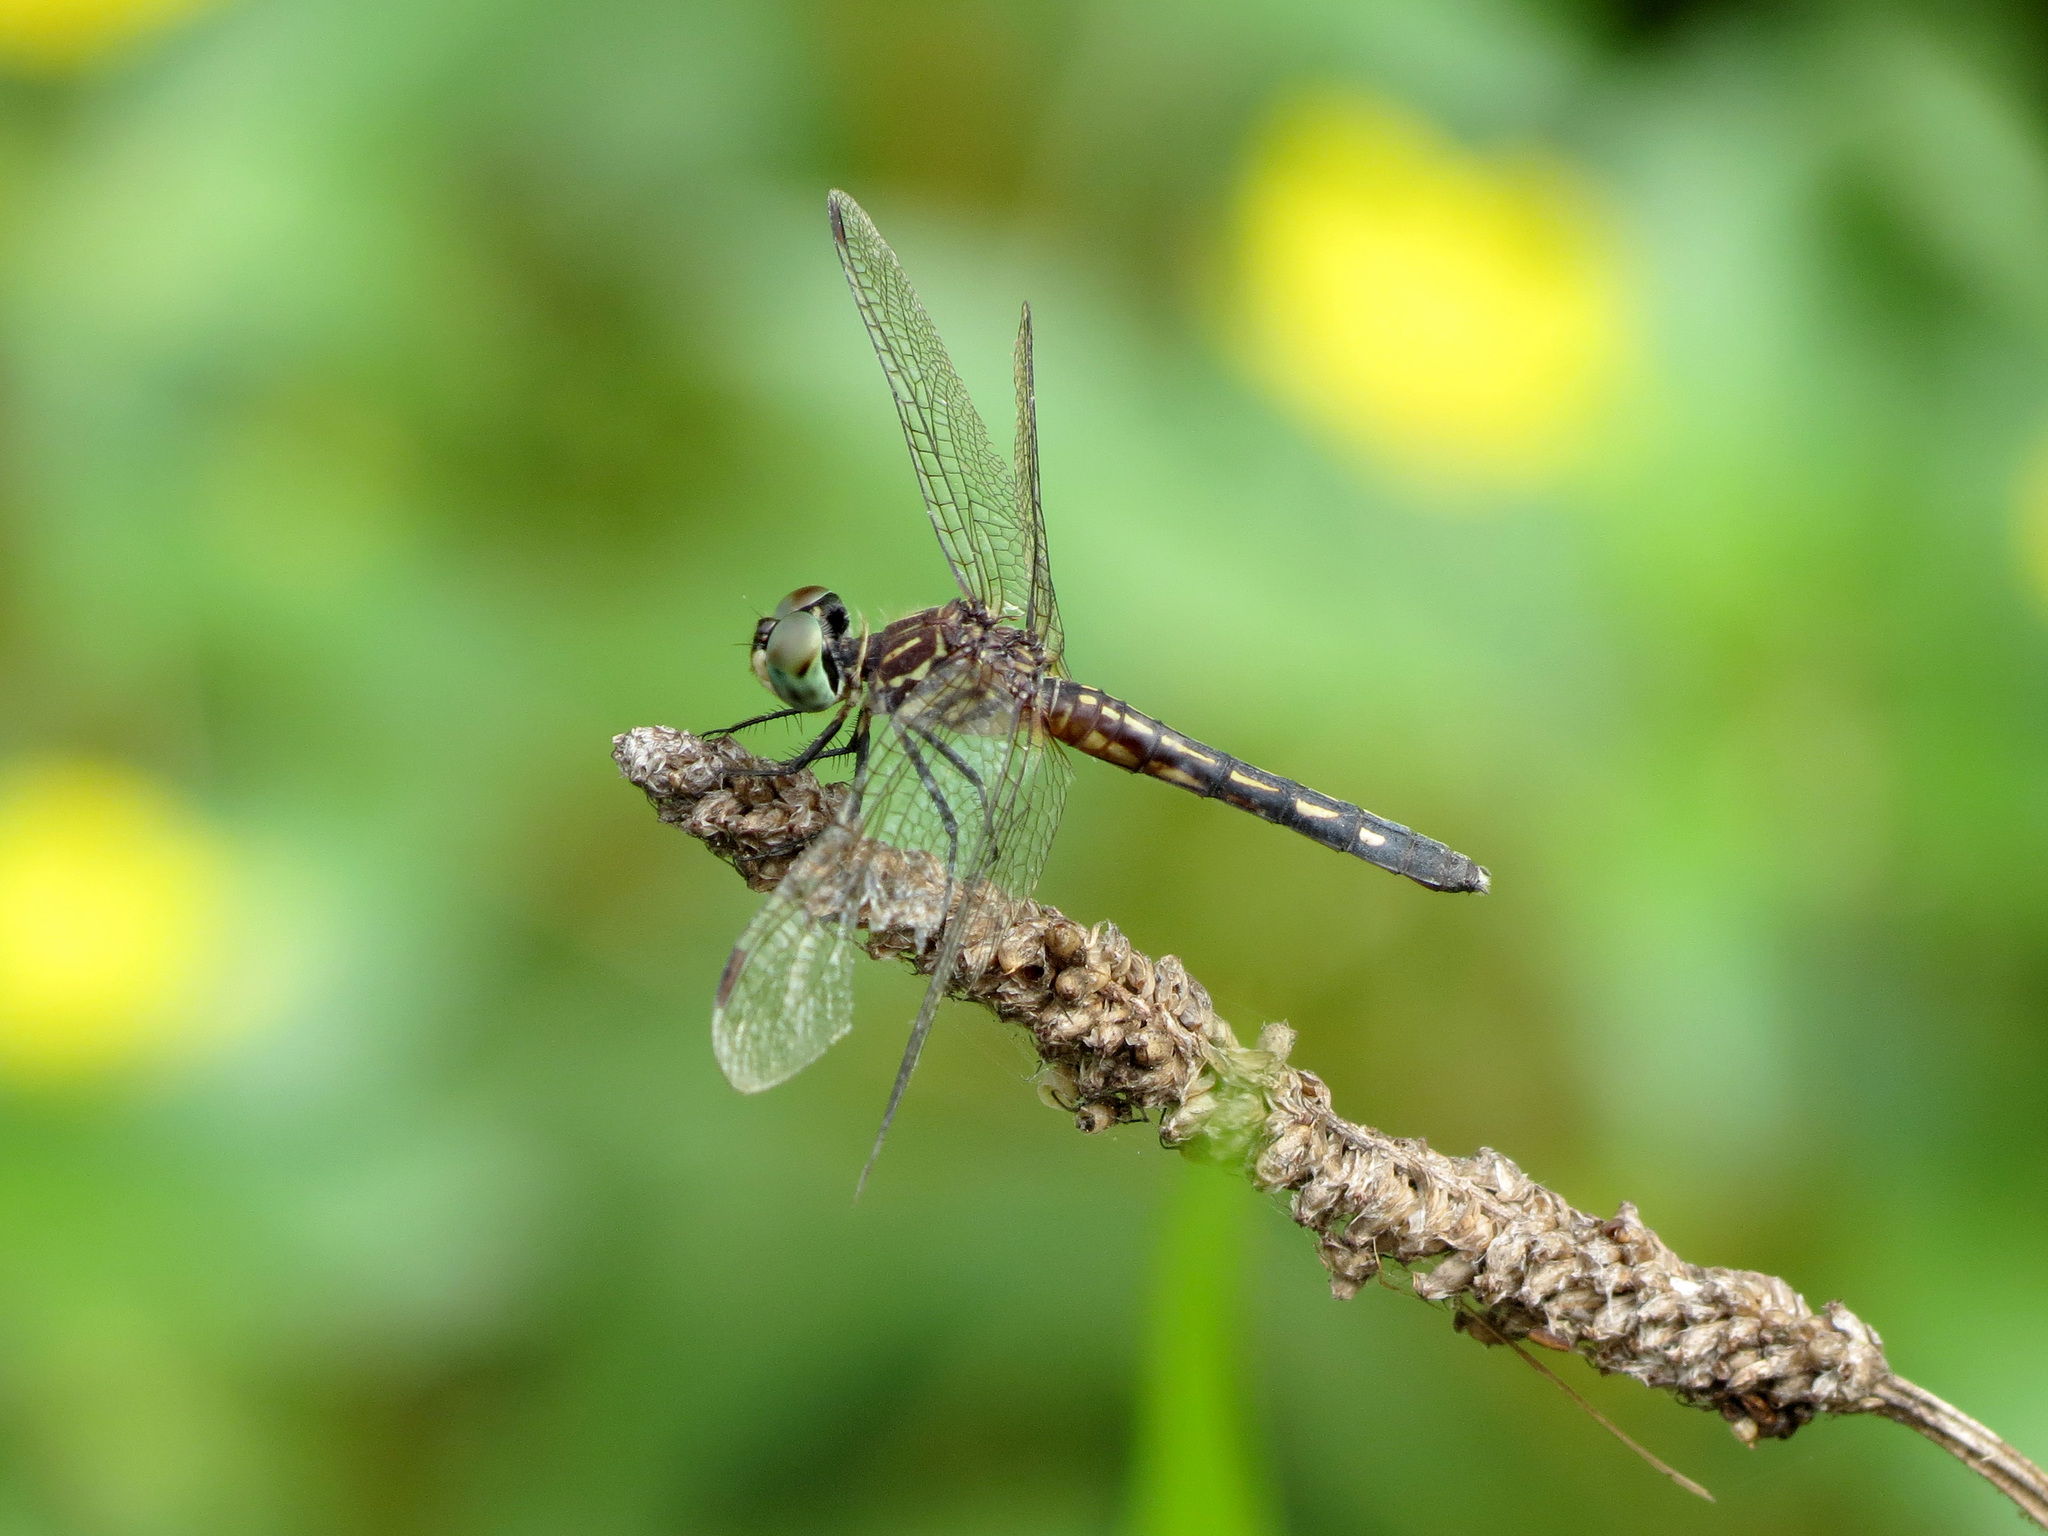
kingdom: Animalia
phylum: Arthropoda
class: Insecta
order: Odonata
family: Libellulidae
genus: Pachydiplax
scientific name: Pachydiplax longipennis
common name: Blue dasher
